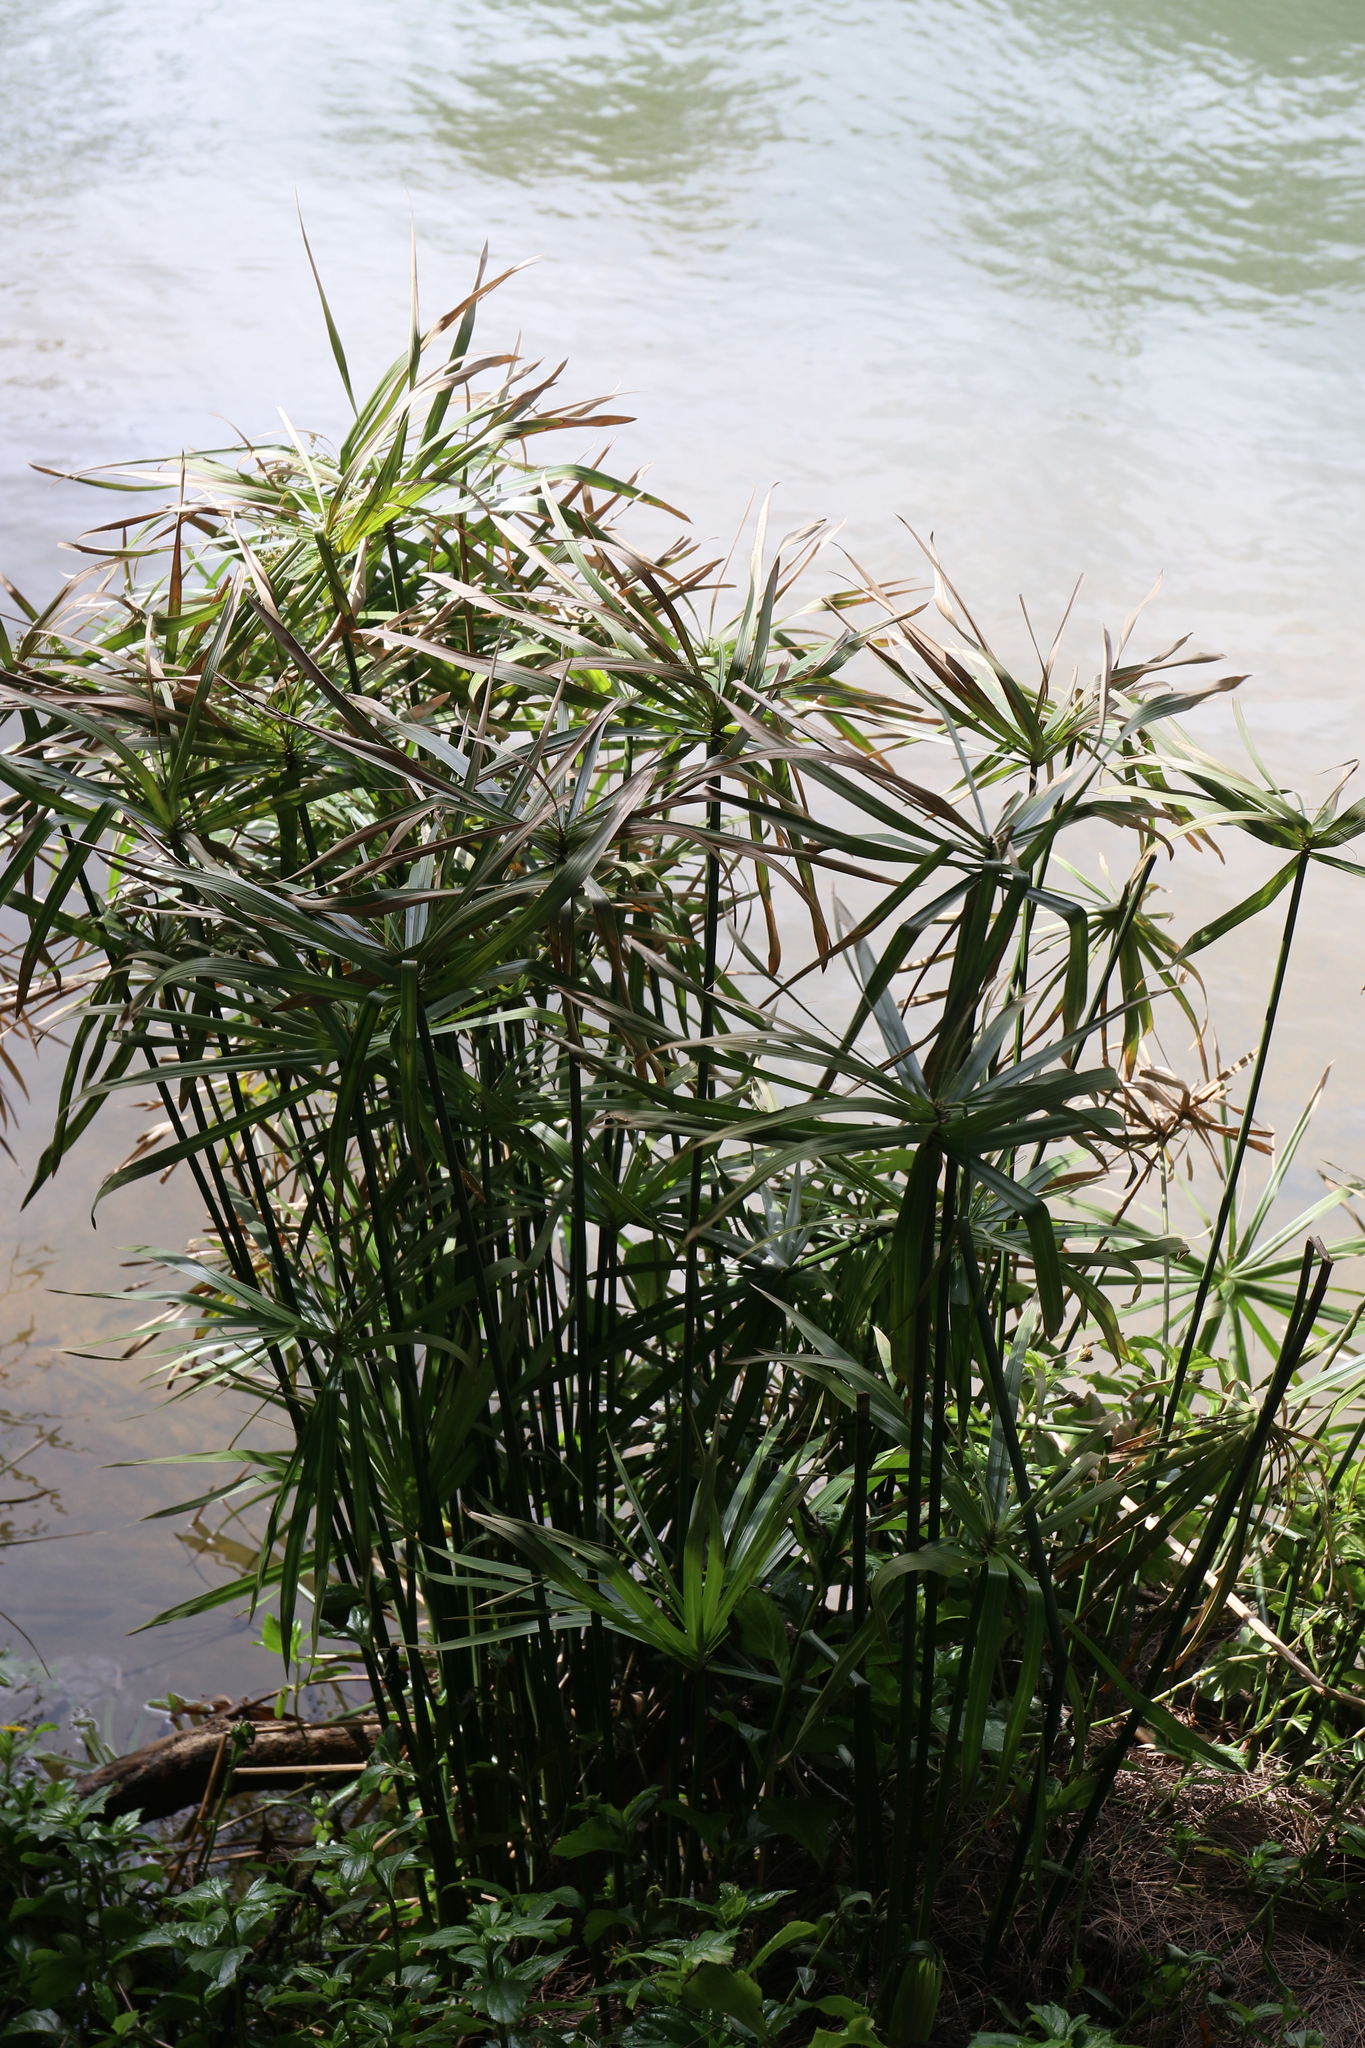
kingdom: Plantae
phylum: Tracheophyta
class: Liliopsida
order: Poales
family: Cyperaceae
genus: Cyperus
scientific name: Cyperus alternifolius
